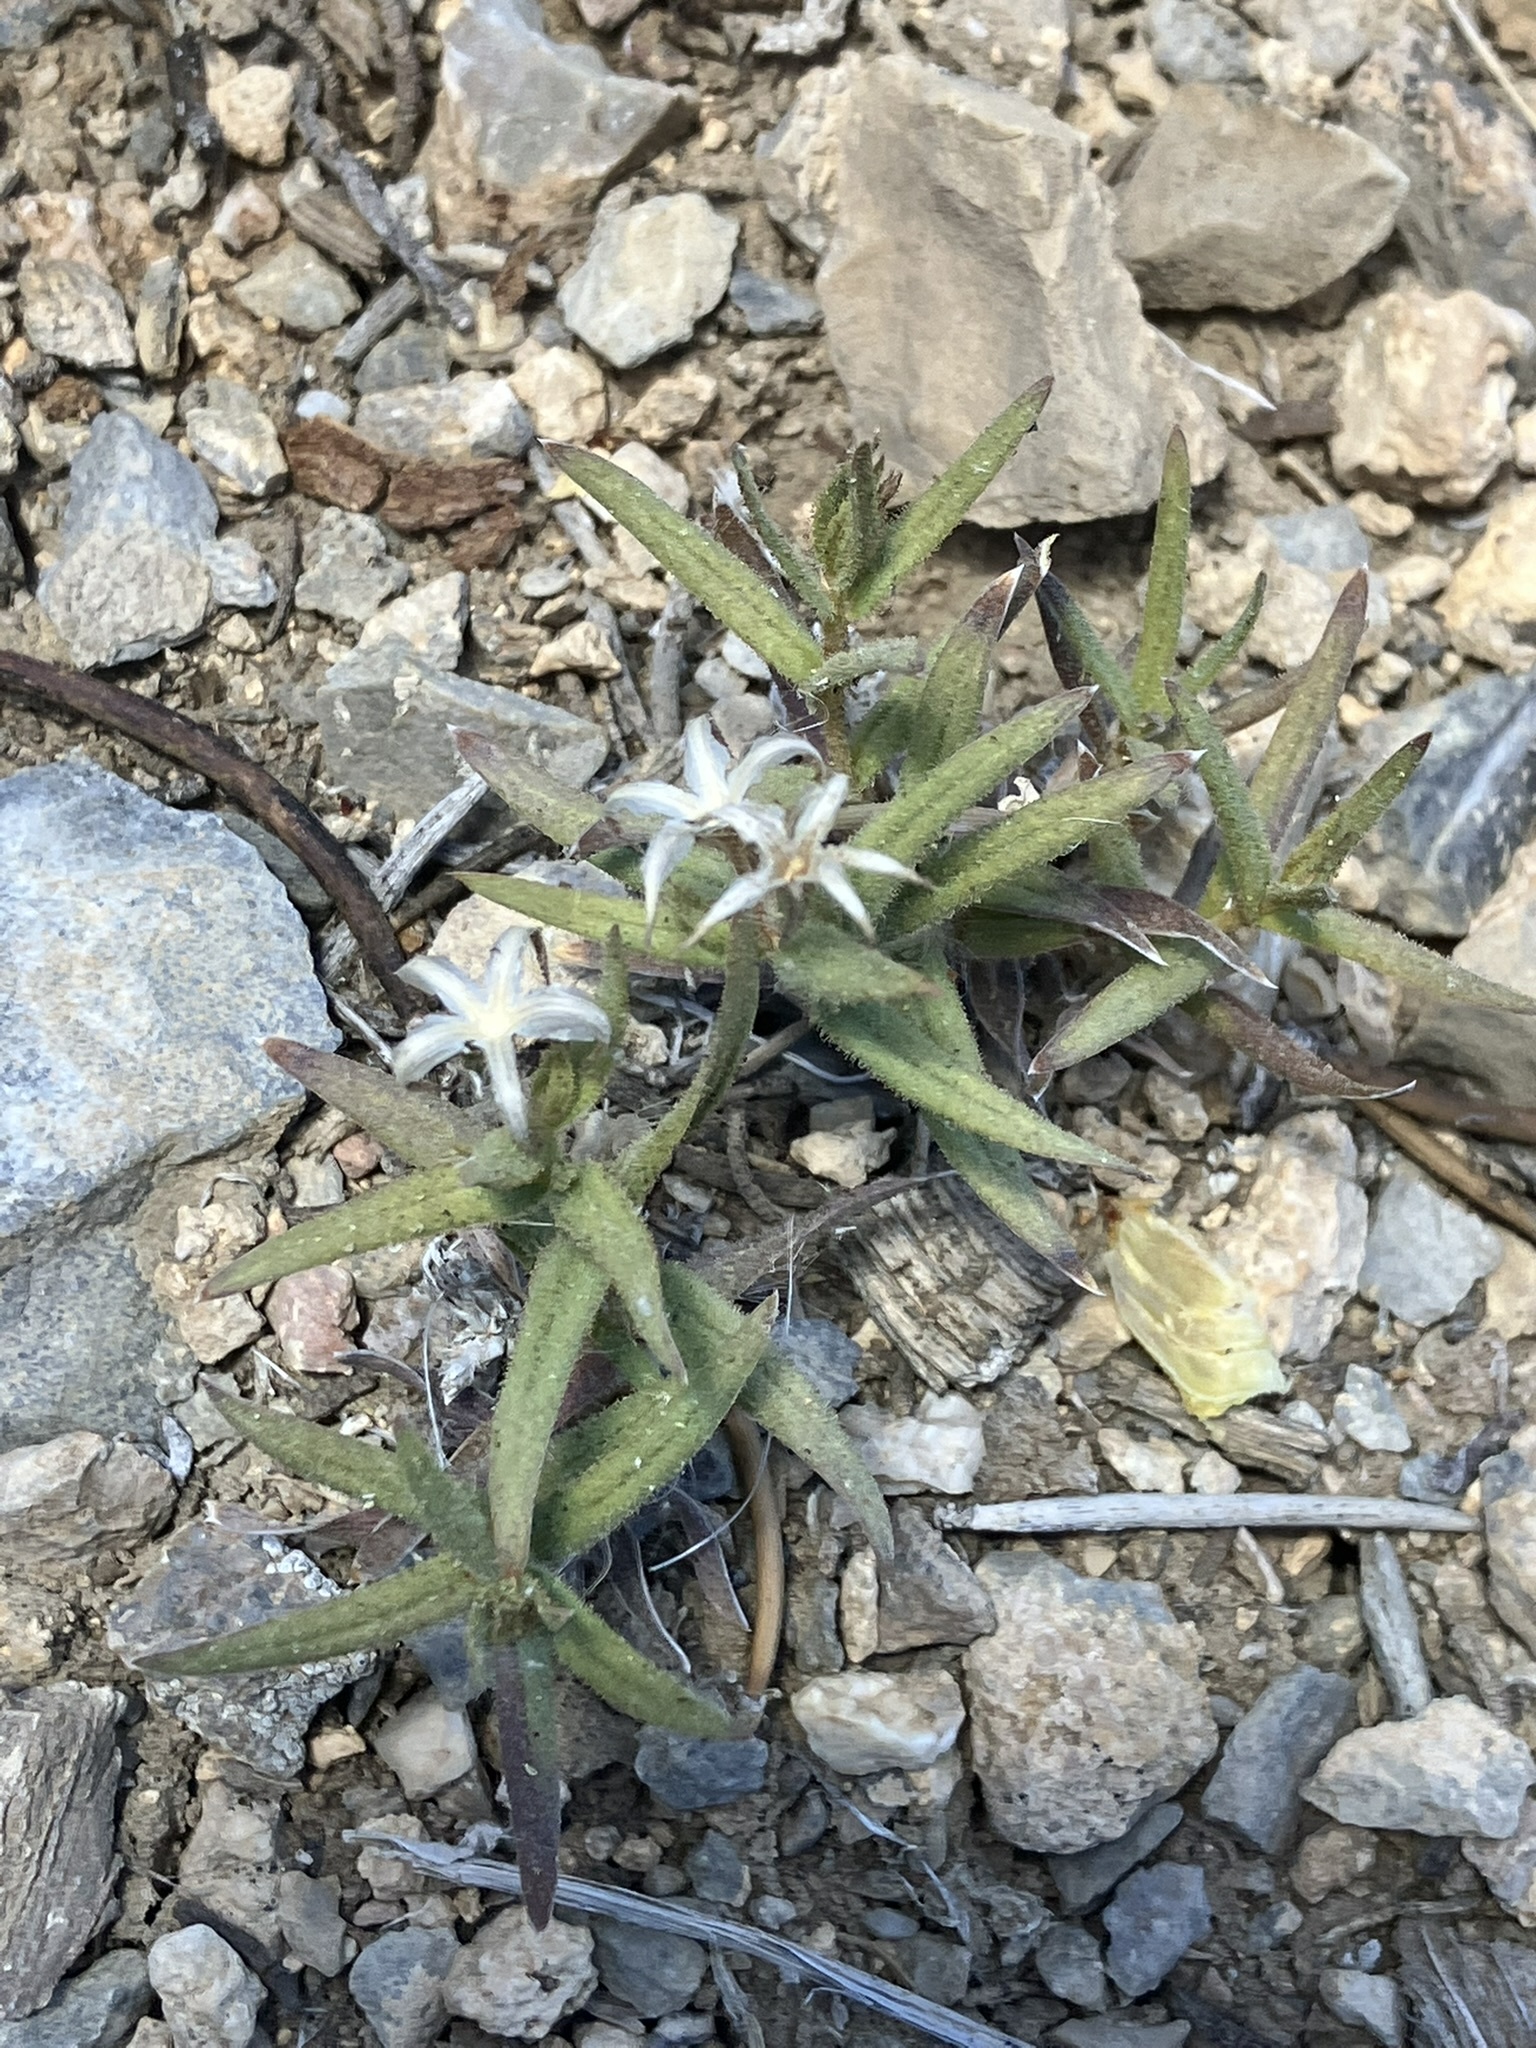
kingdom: Plantae
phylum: Tracheophyta
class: Magnoliopsida
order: Ericales
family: Polemoniaceae
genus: Phlox
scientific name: Phlox longifolia
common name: Longleaf phlox
